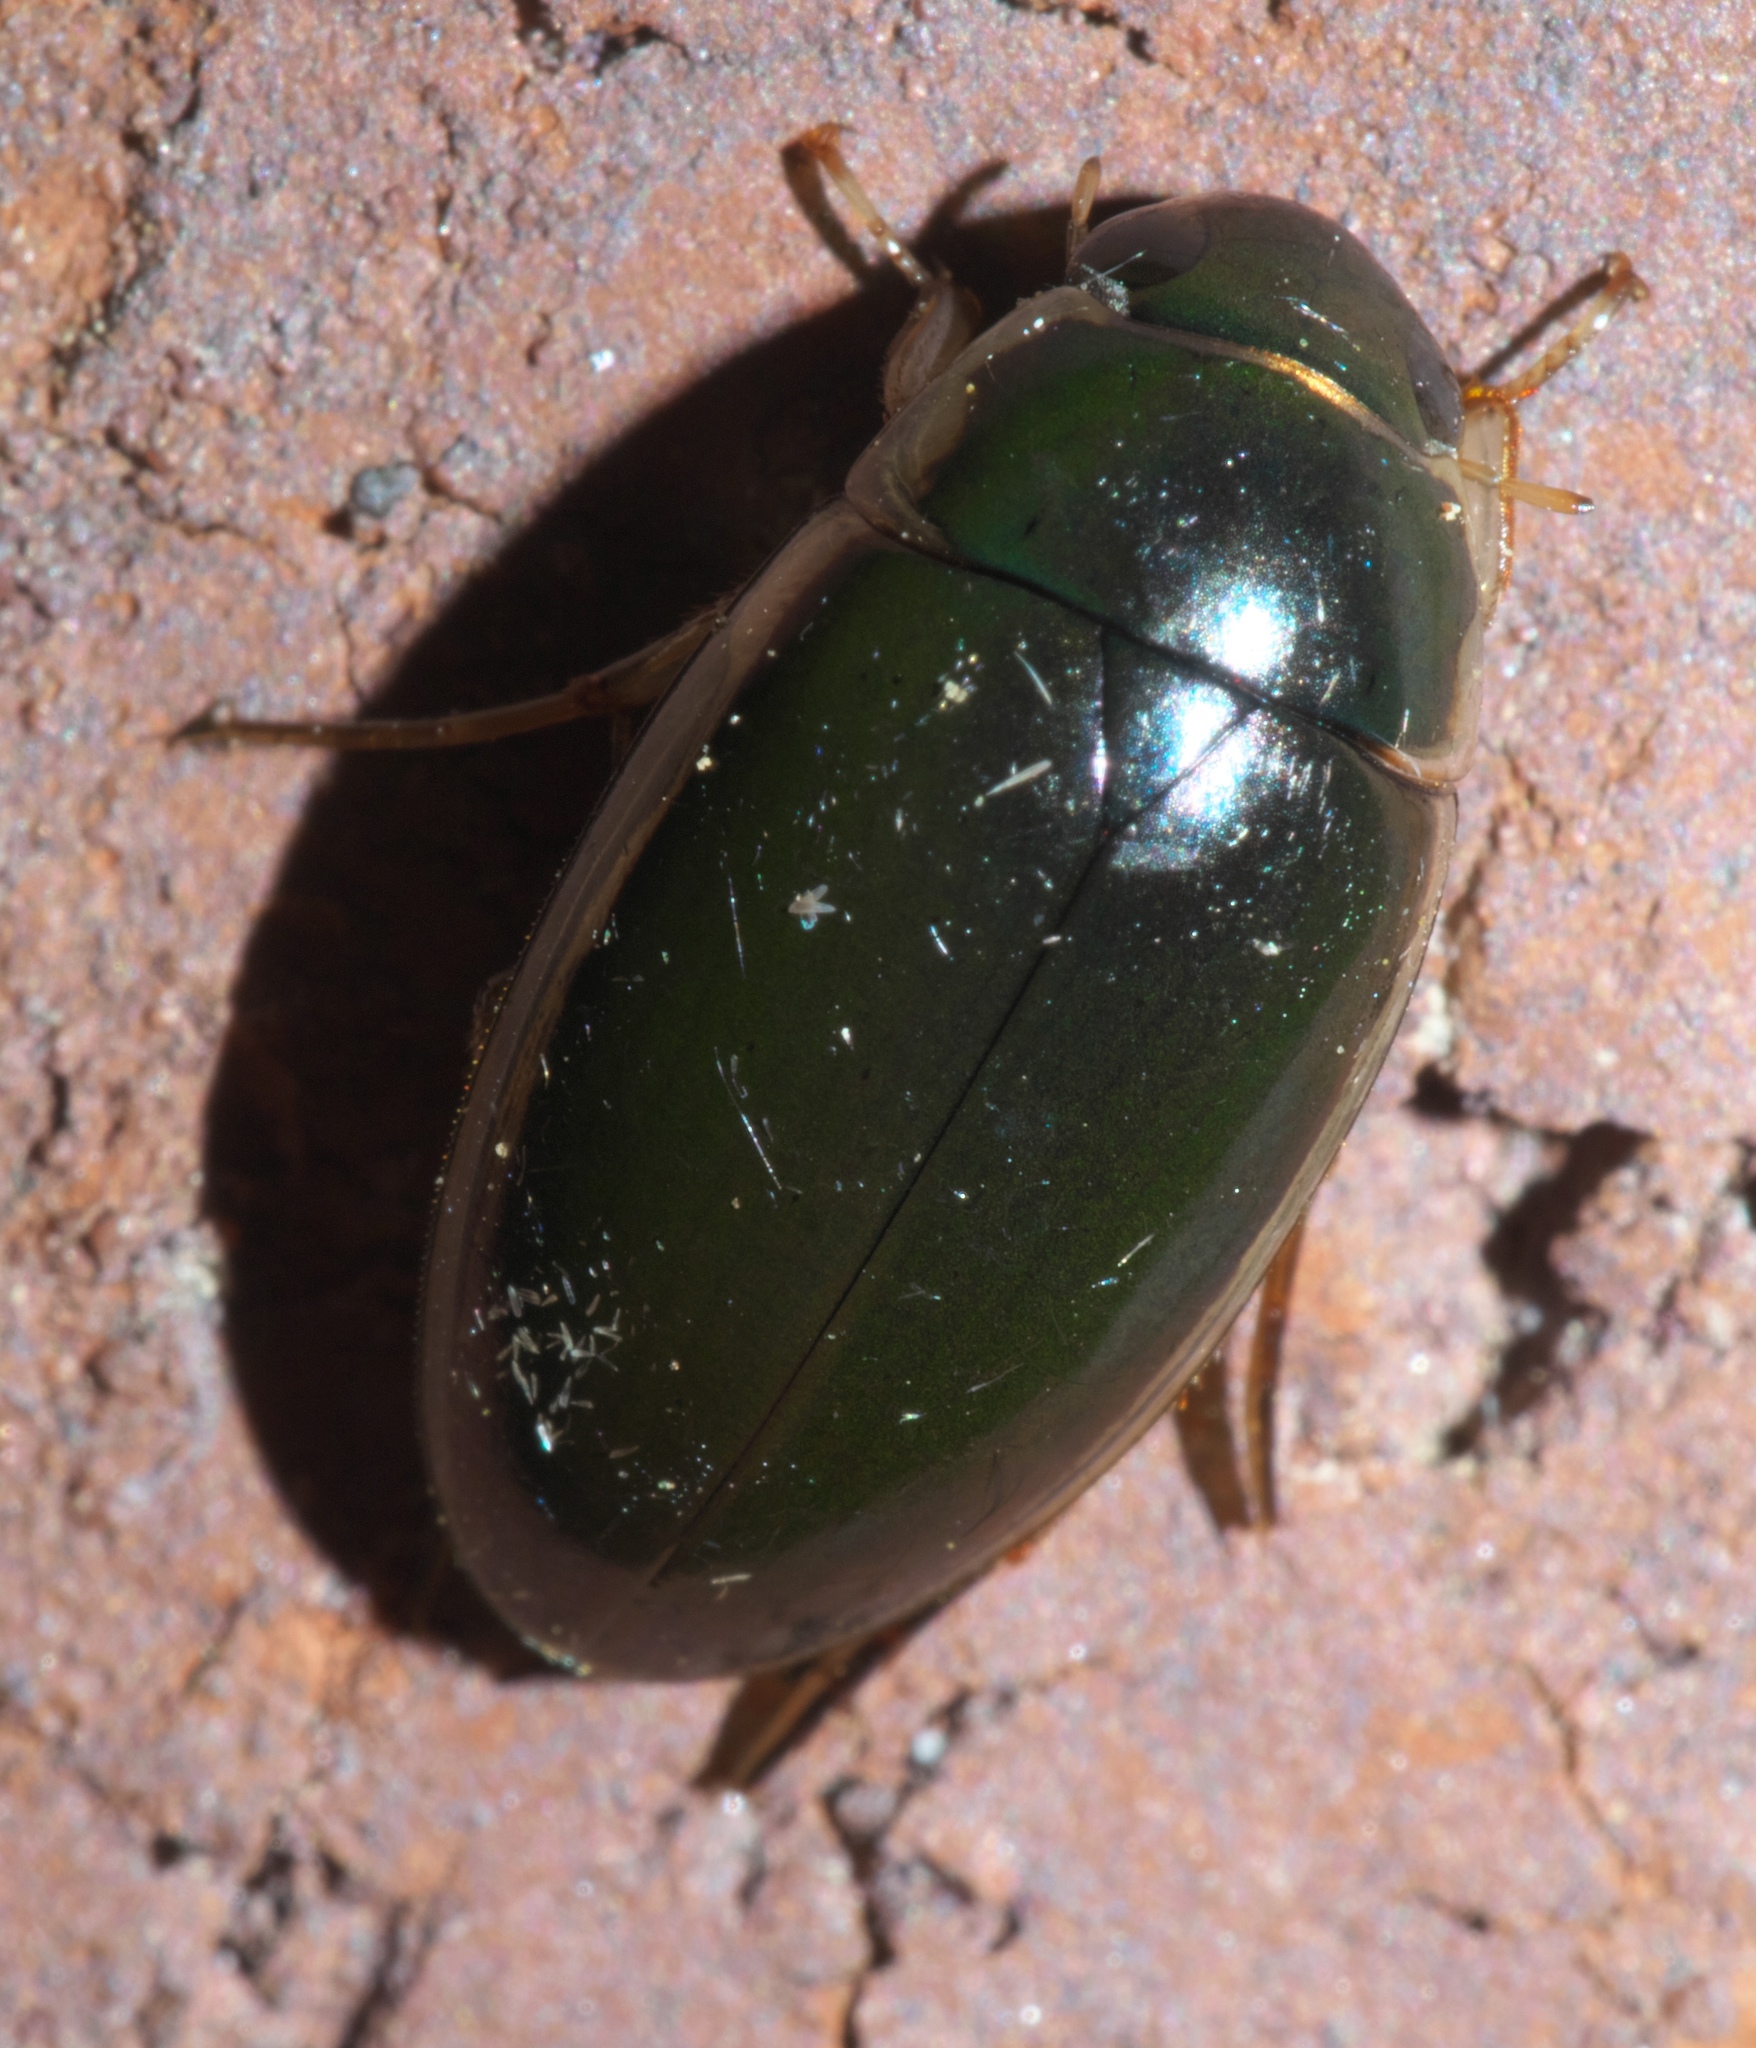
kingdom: Animalia
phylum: Arthropoda
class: Insecta
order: Coleoptera
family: Hydrophilidae
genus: Tropisternus
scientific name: Tropisternus lateralis
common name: Lateral-banded water scavenger beetle
